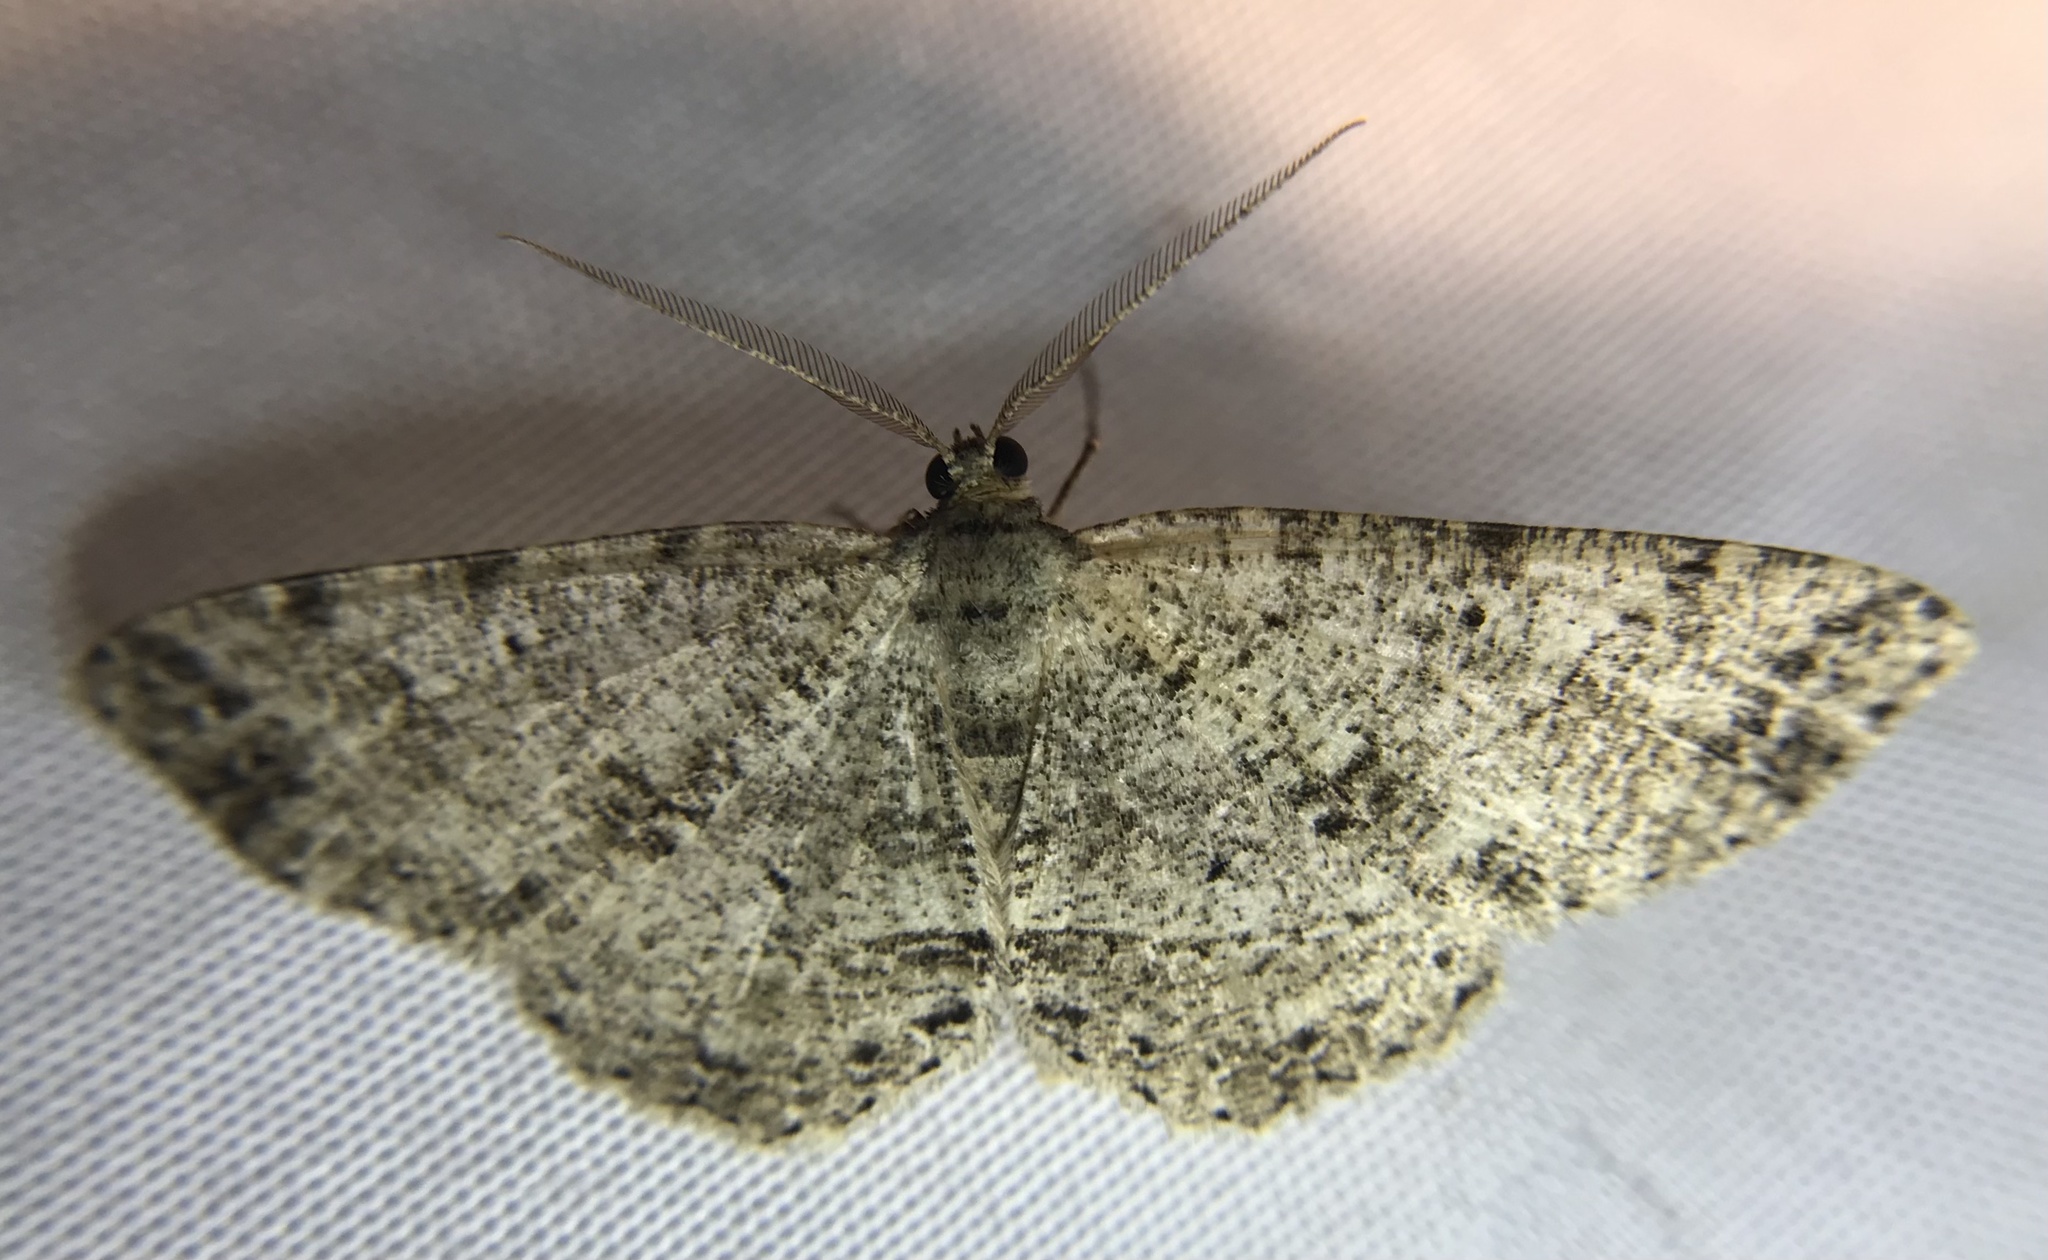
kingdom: Animalia
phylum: Arthropoda
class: Insecta
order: Lepidoptera
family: Geometridae
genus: Melanolophia
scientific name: Melanolophia canadaria
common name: Canadian melanolophia
